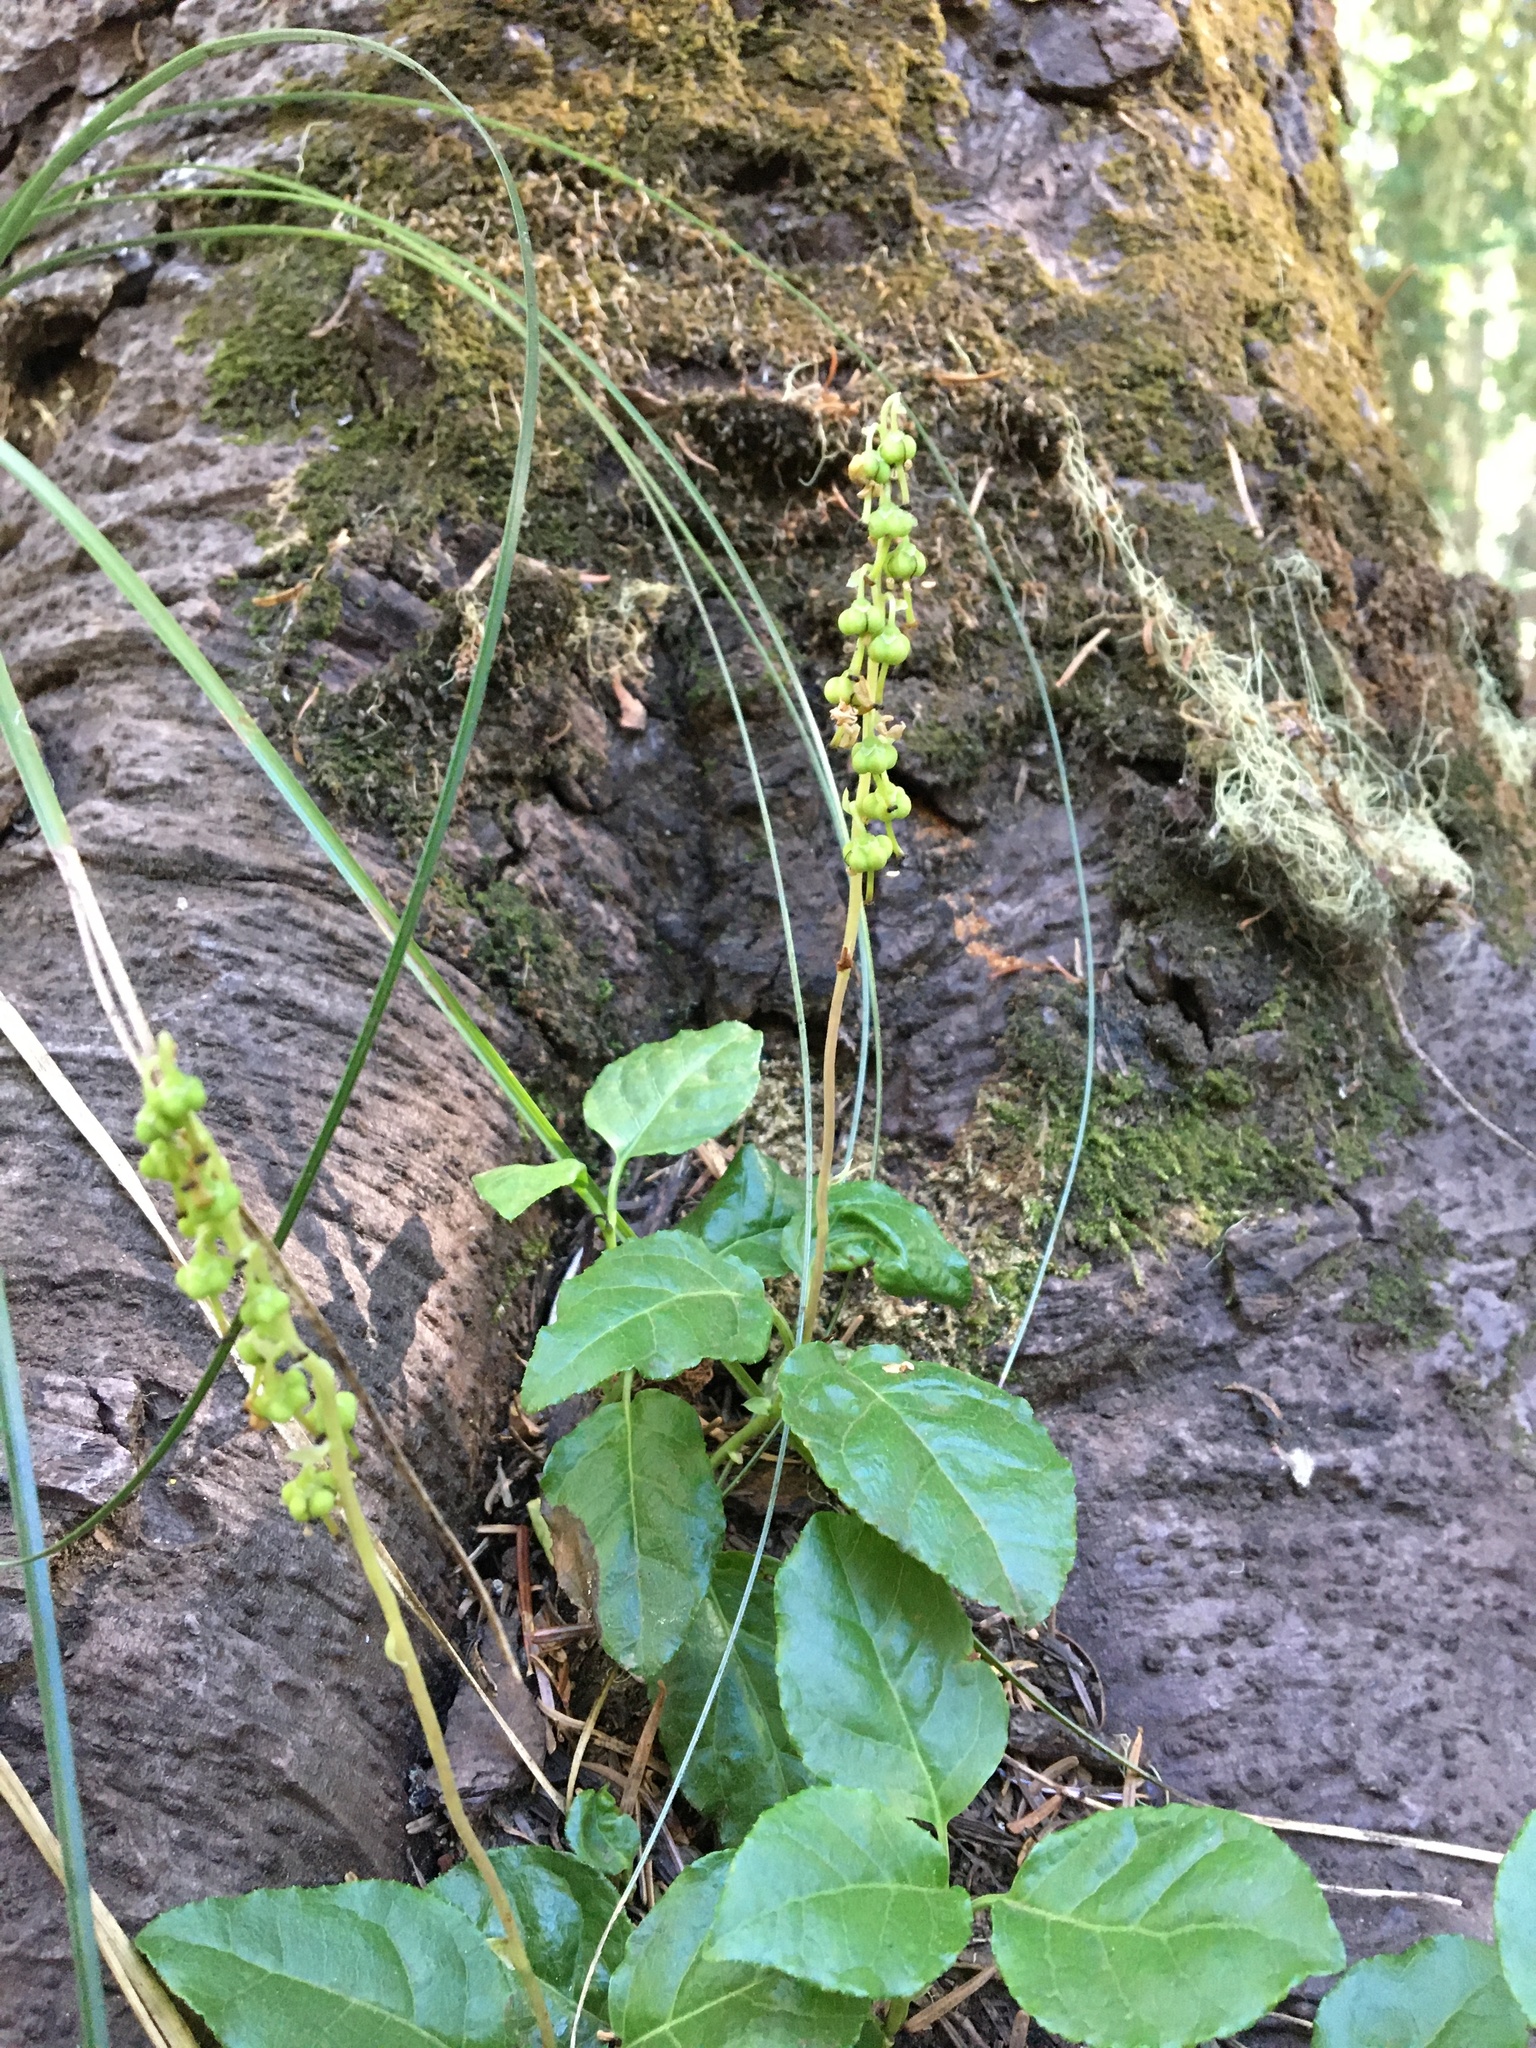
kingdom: Plantae
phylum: Tracheophyta
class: Magnoliopsida
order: Ericales
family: Ericaceae
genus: Orthilia
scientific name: Orthilia secunda
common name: One-sided orthilia
